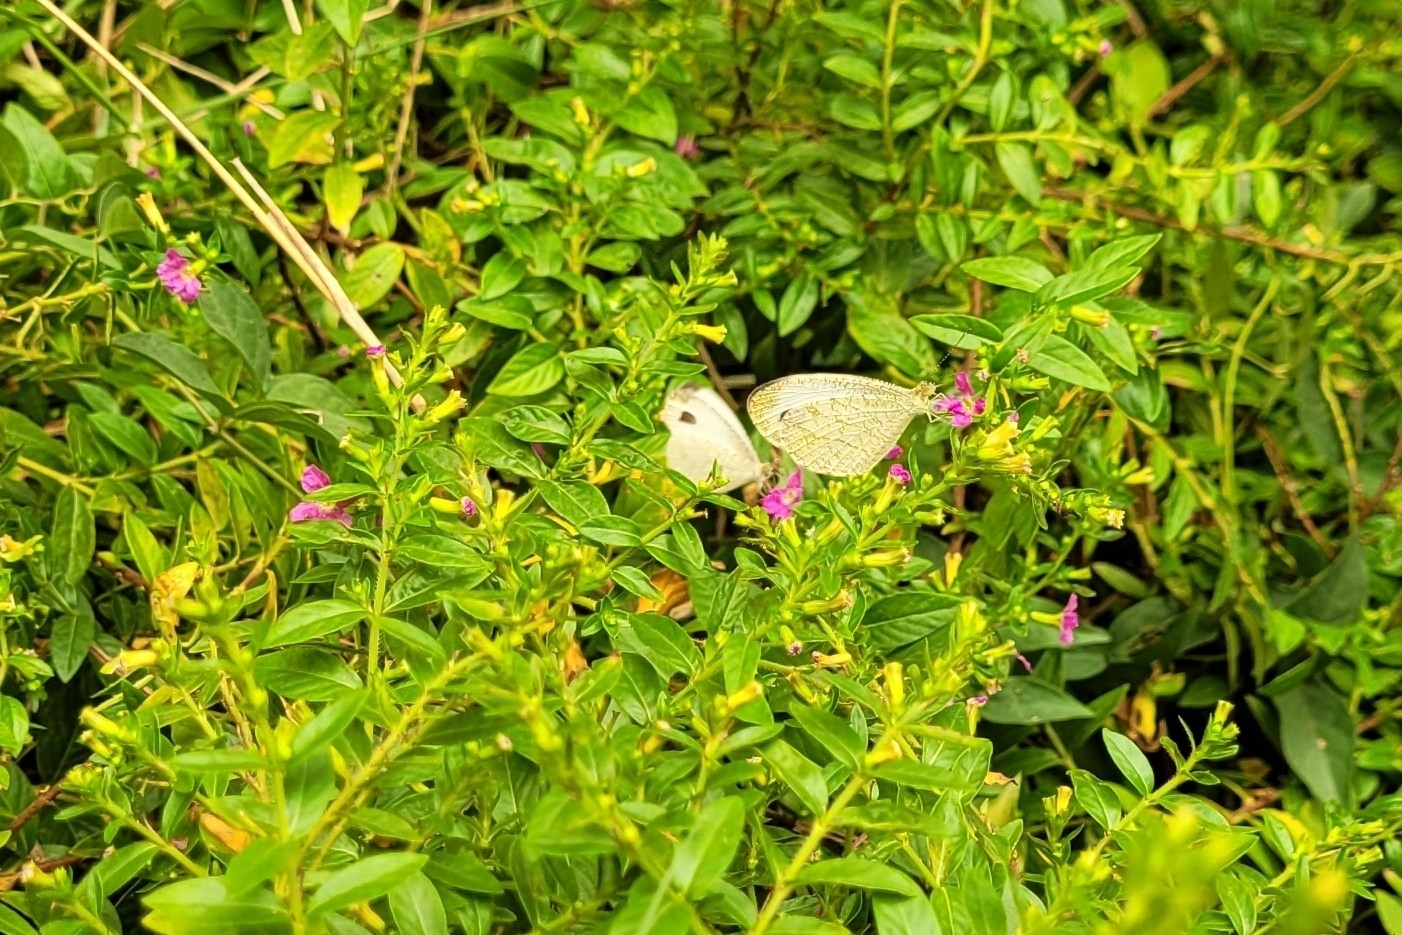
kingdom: Animalia
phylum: Arthropoda
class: Insecta
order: Lepidoptera
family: Pieridae
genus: Leptosia
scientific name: Leptosia nina
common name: Psyche
